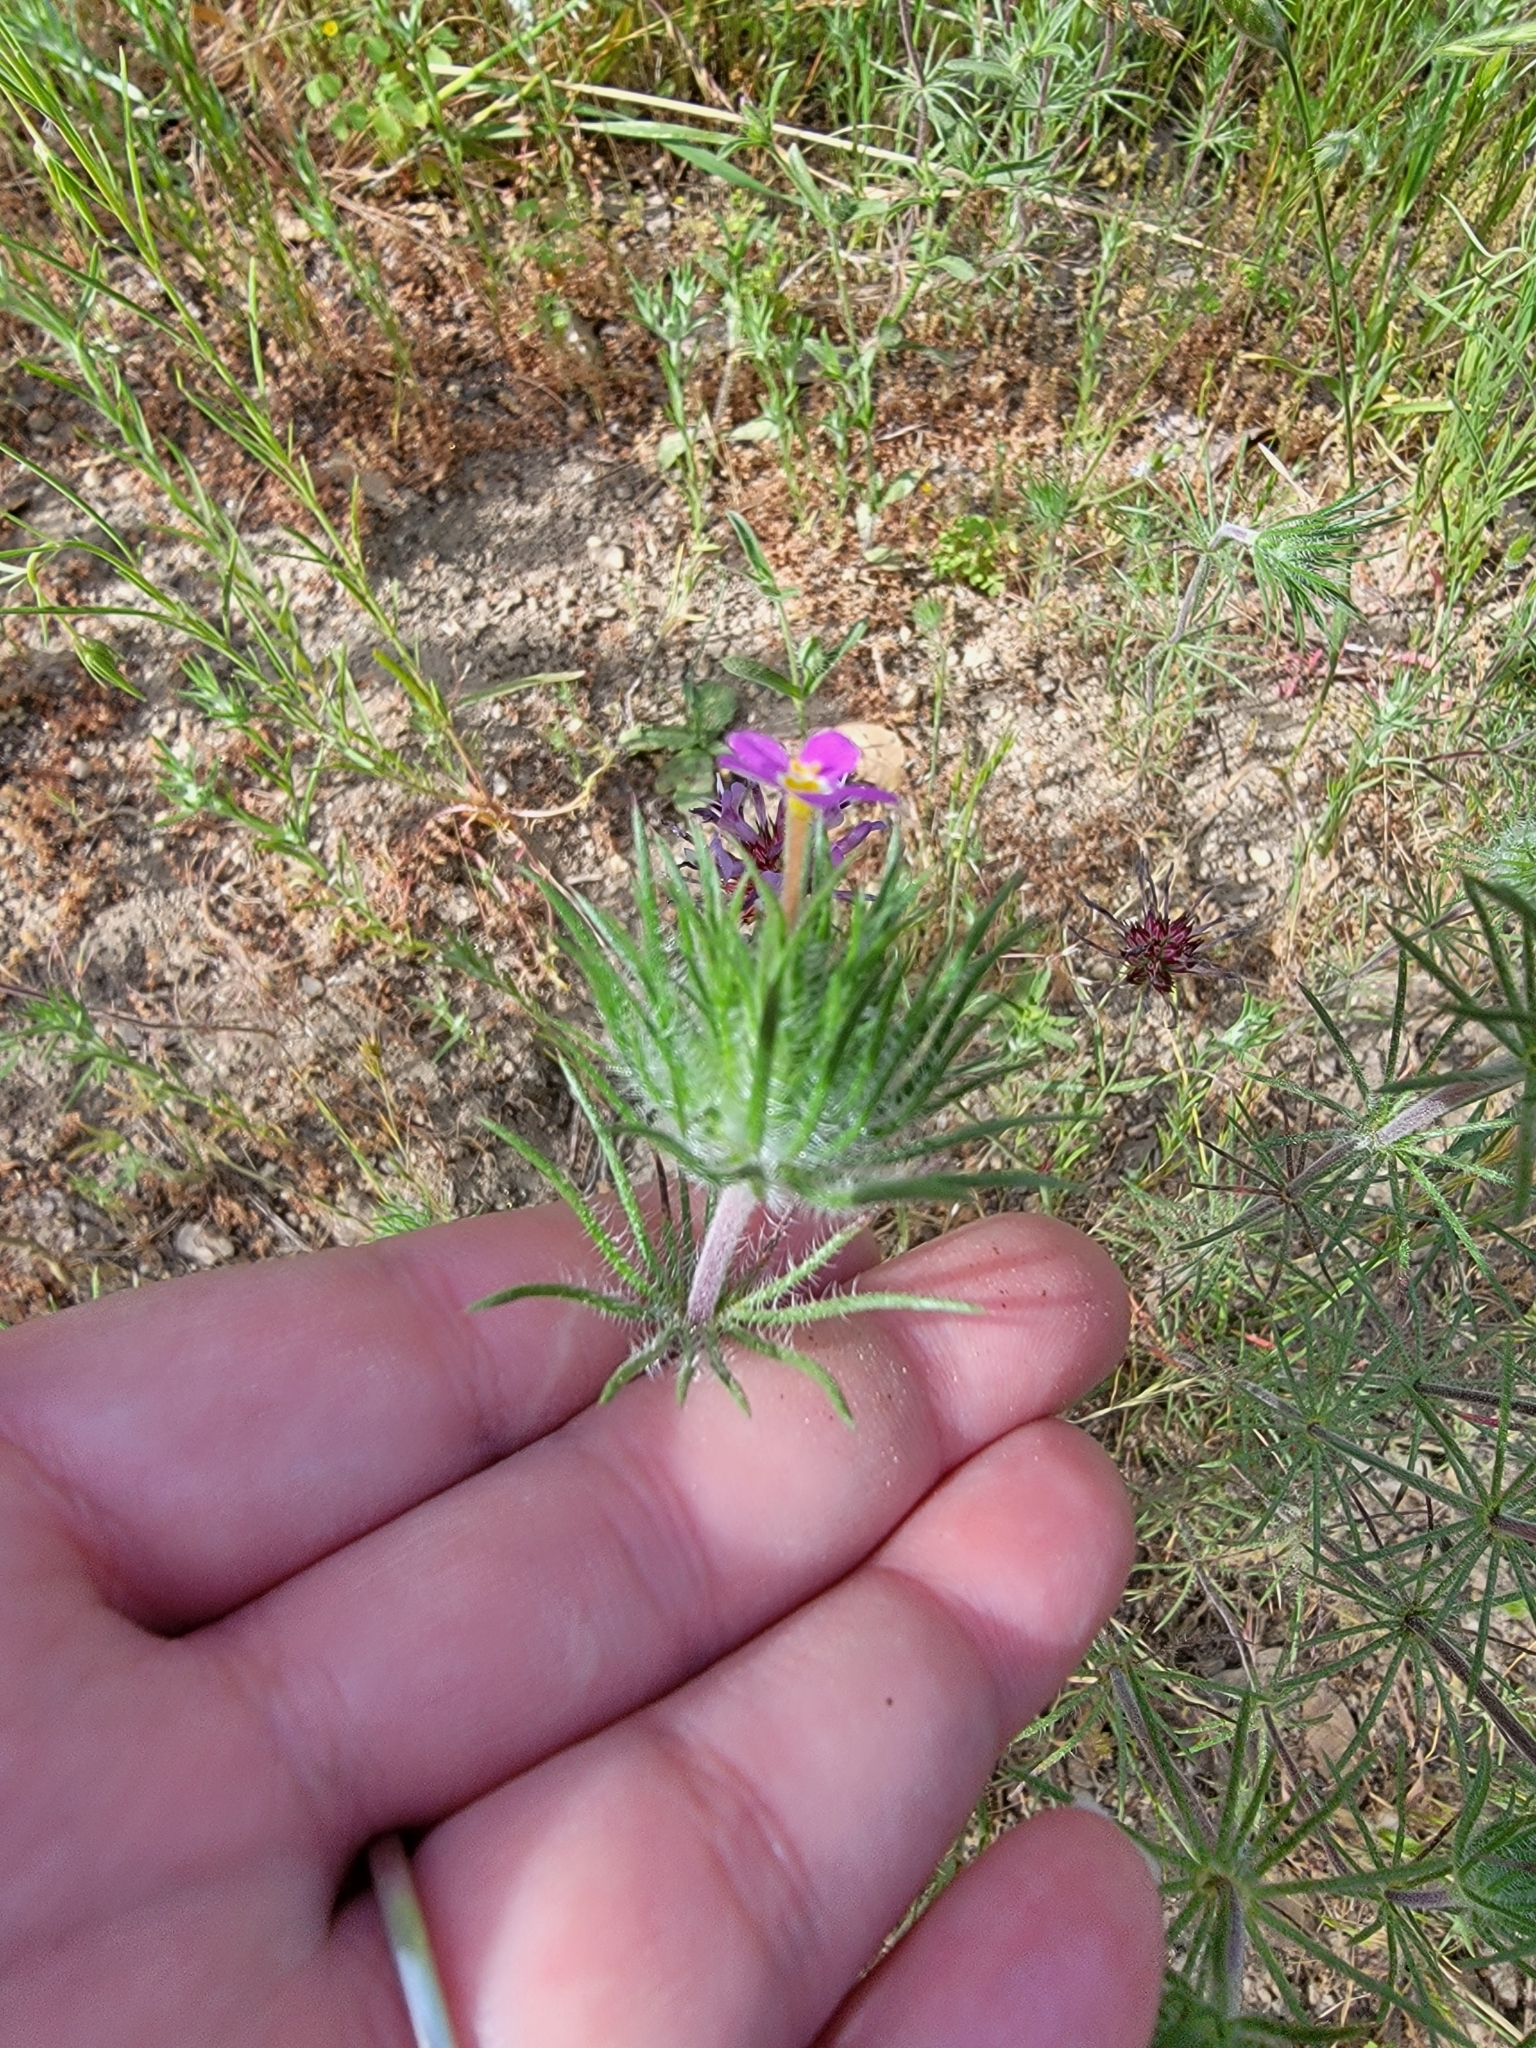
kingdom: Plantae
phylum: Tracheophyta
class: Magnoliopsida
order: Ericales
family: Polemoniaceae
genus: Leptosiphon
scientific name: Leptosiphon ciliatus
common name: Whiskerbrush
